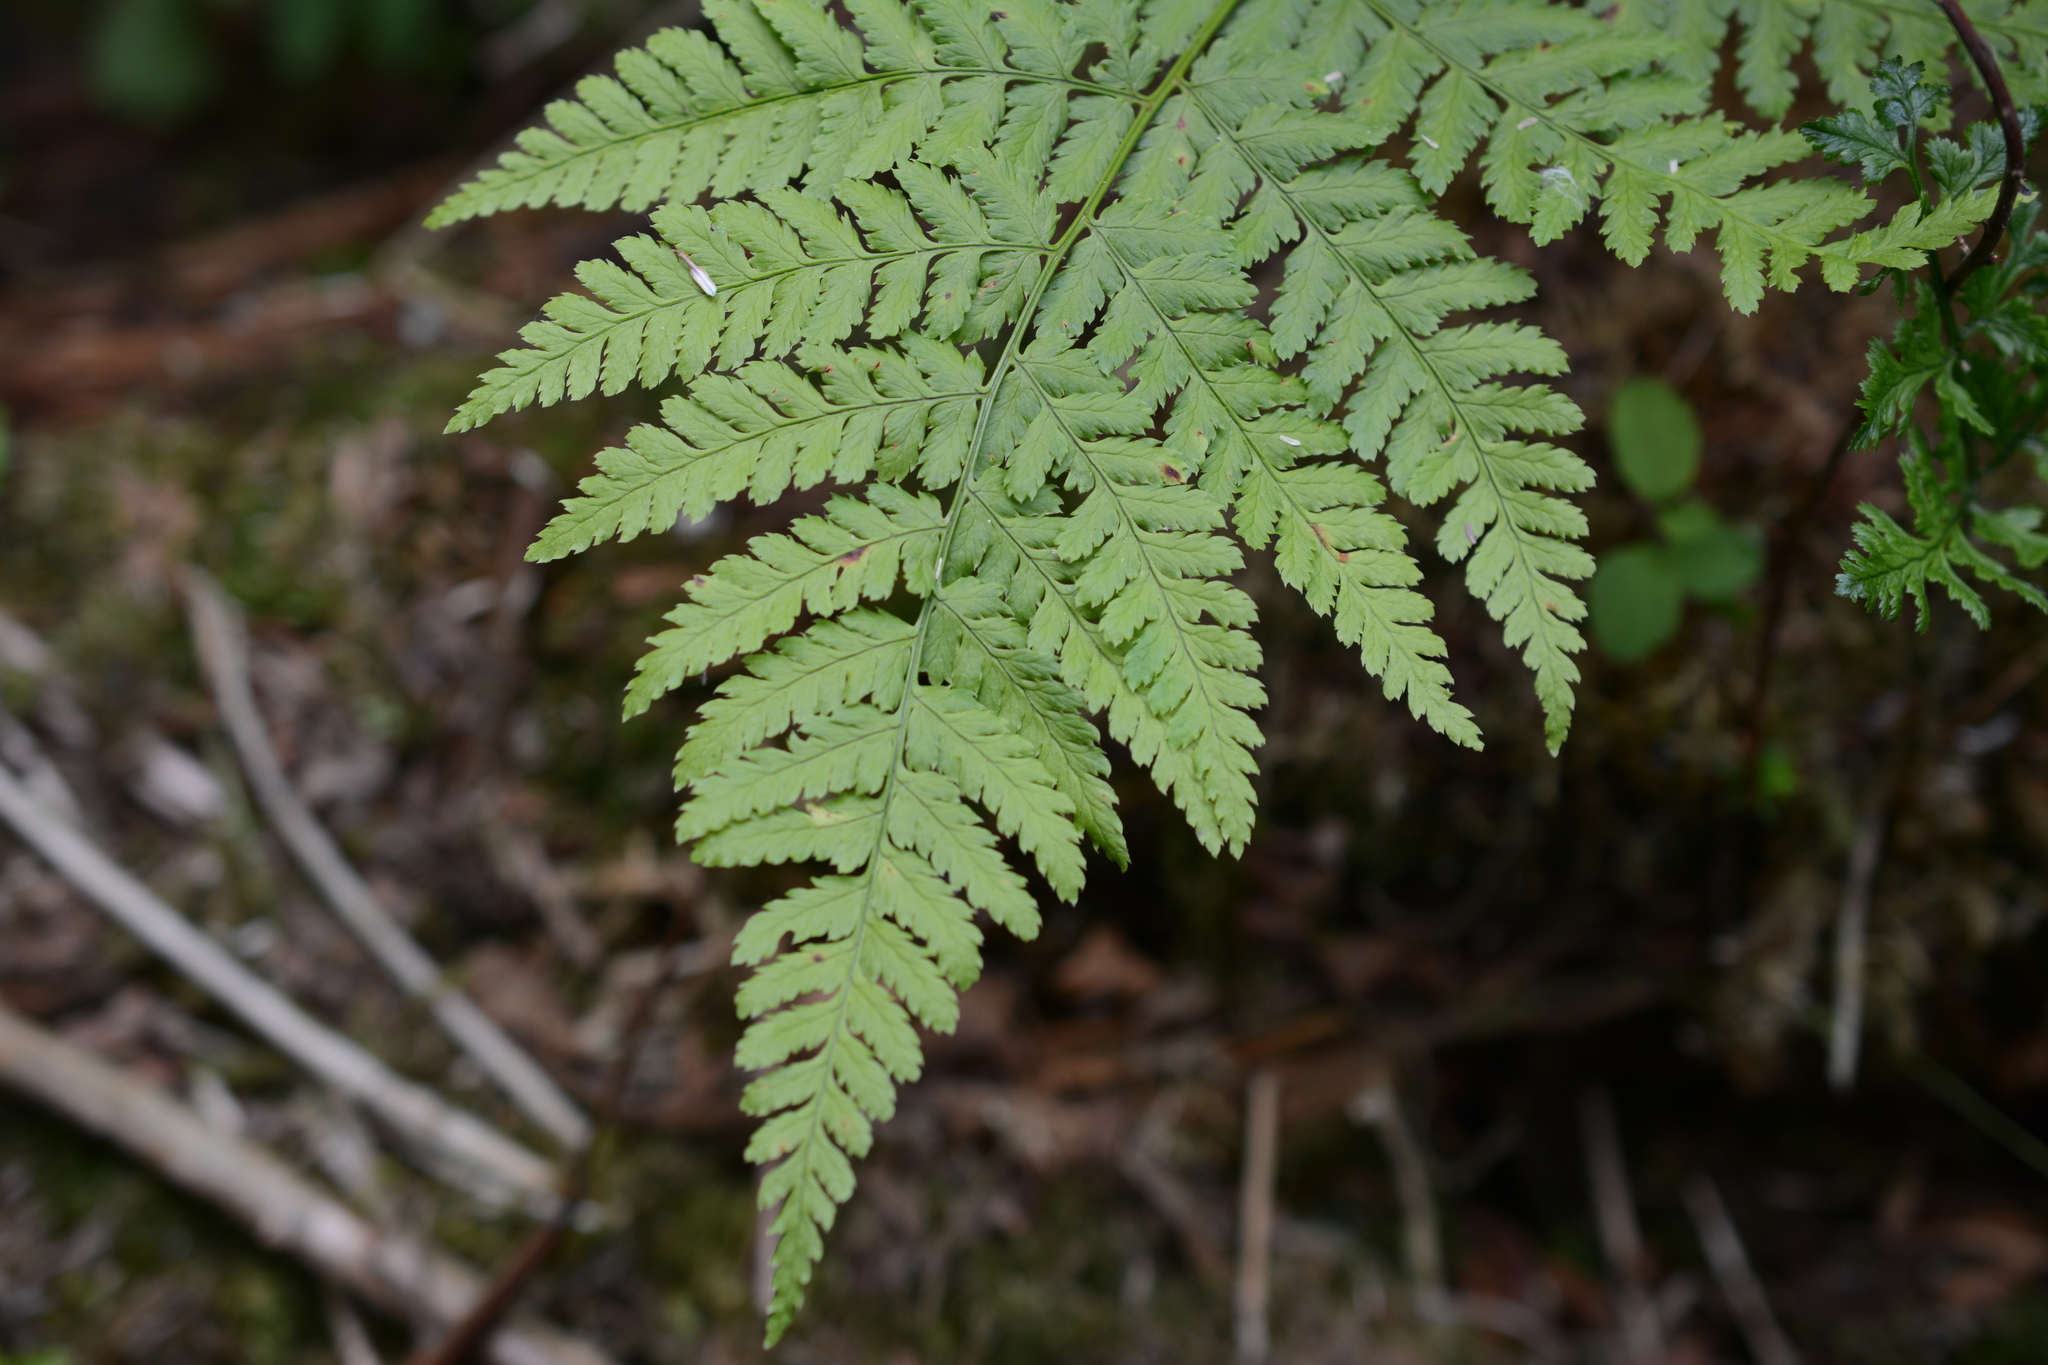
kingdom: Plantae
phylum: Tracheophyta
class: Polypodiopsida
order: Polypodiales
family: Dryopteridaceae
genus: Dryopteris
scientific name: Dryopteris expansa
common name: Northern buckler fern
